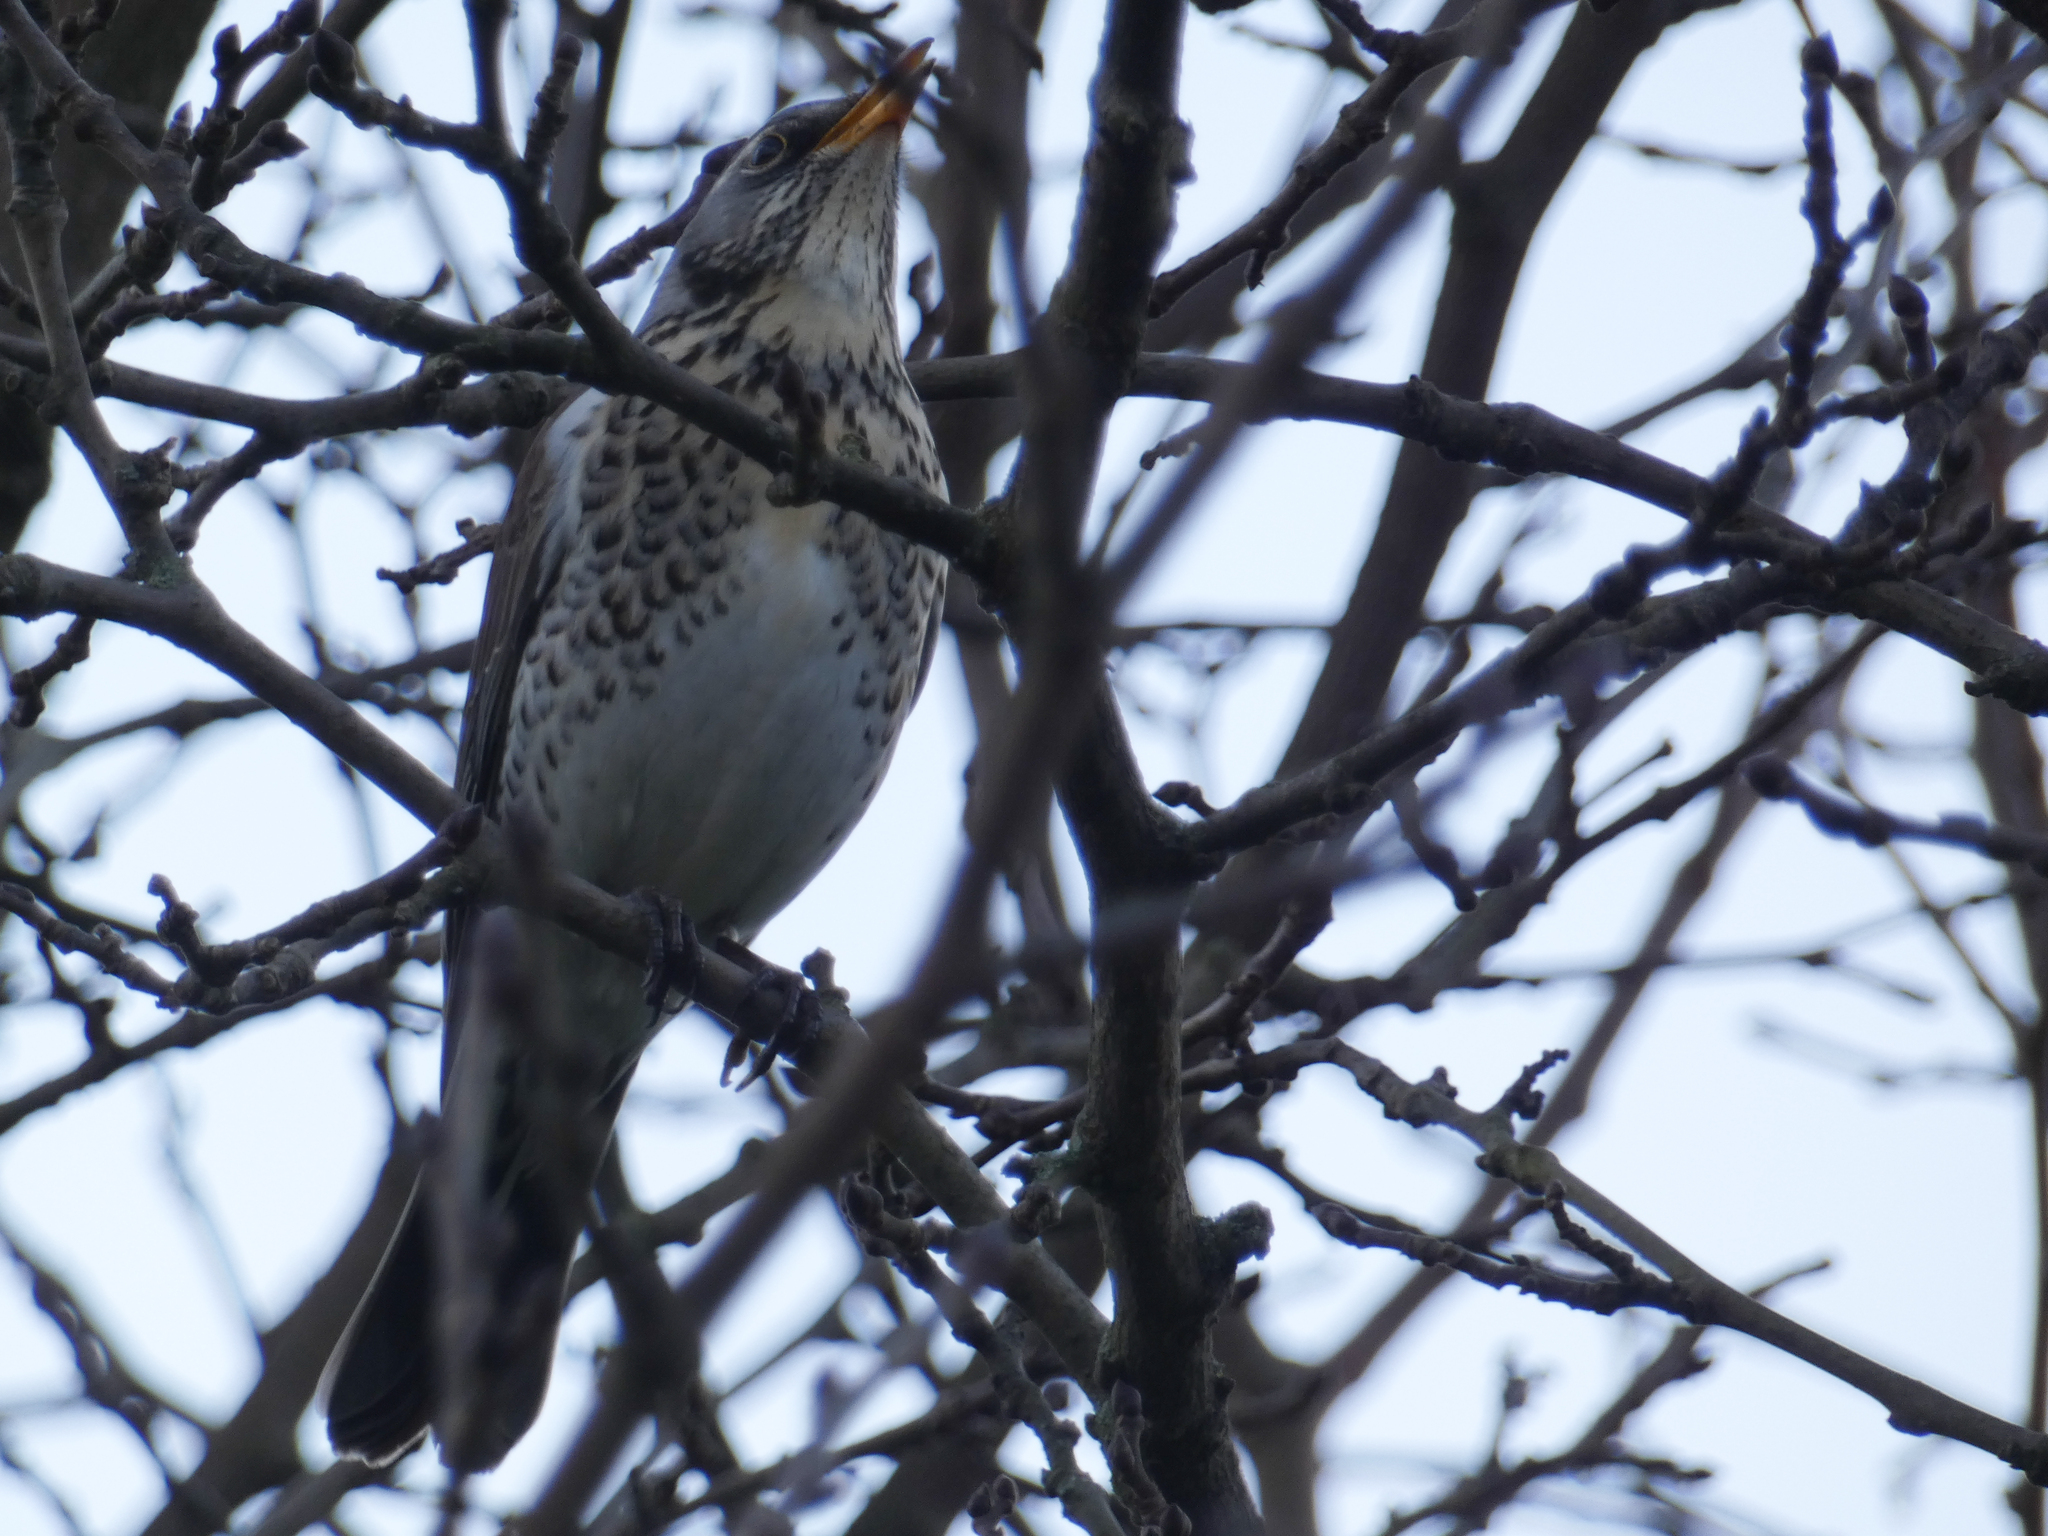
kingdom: Animalia
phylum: Chordata
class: Aves
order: Passeriformes
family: Turdidae
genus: Turdus
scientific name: Turdus pilaris
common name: Fieldfare
